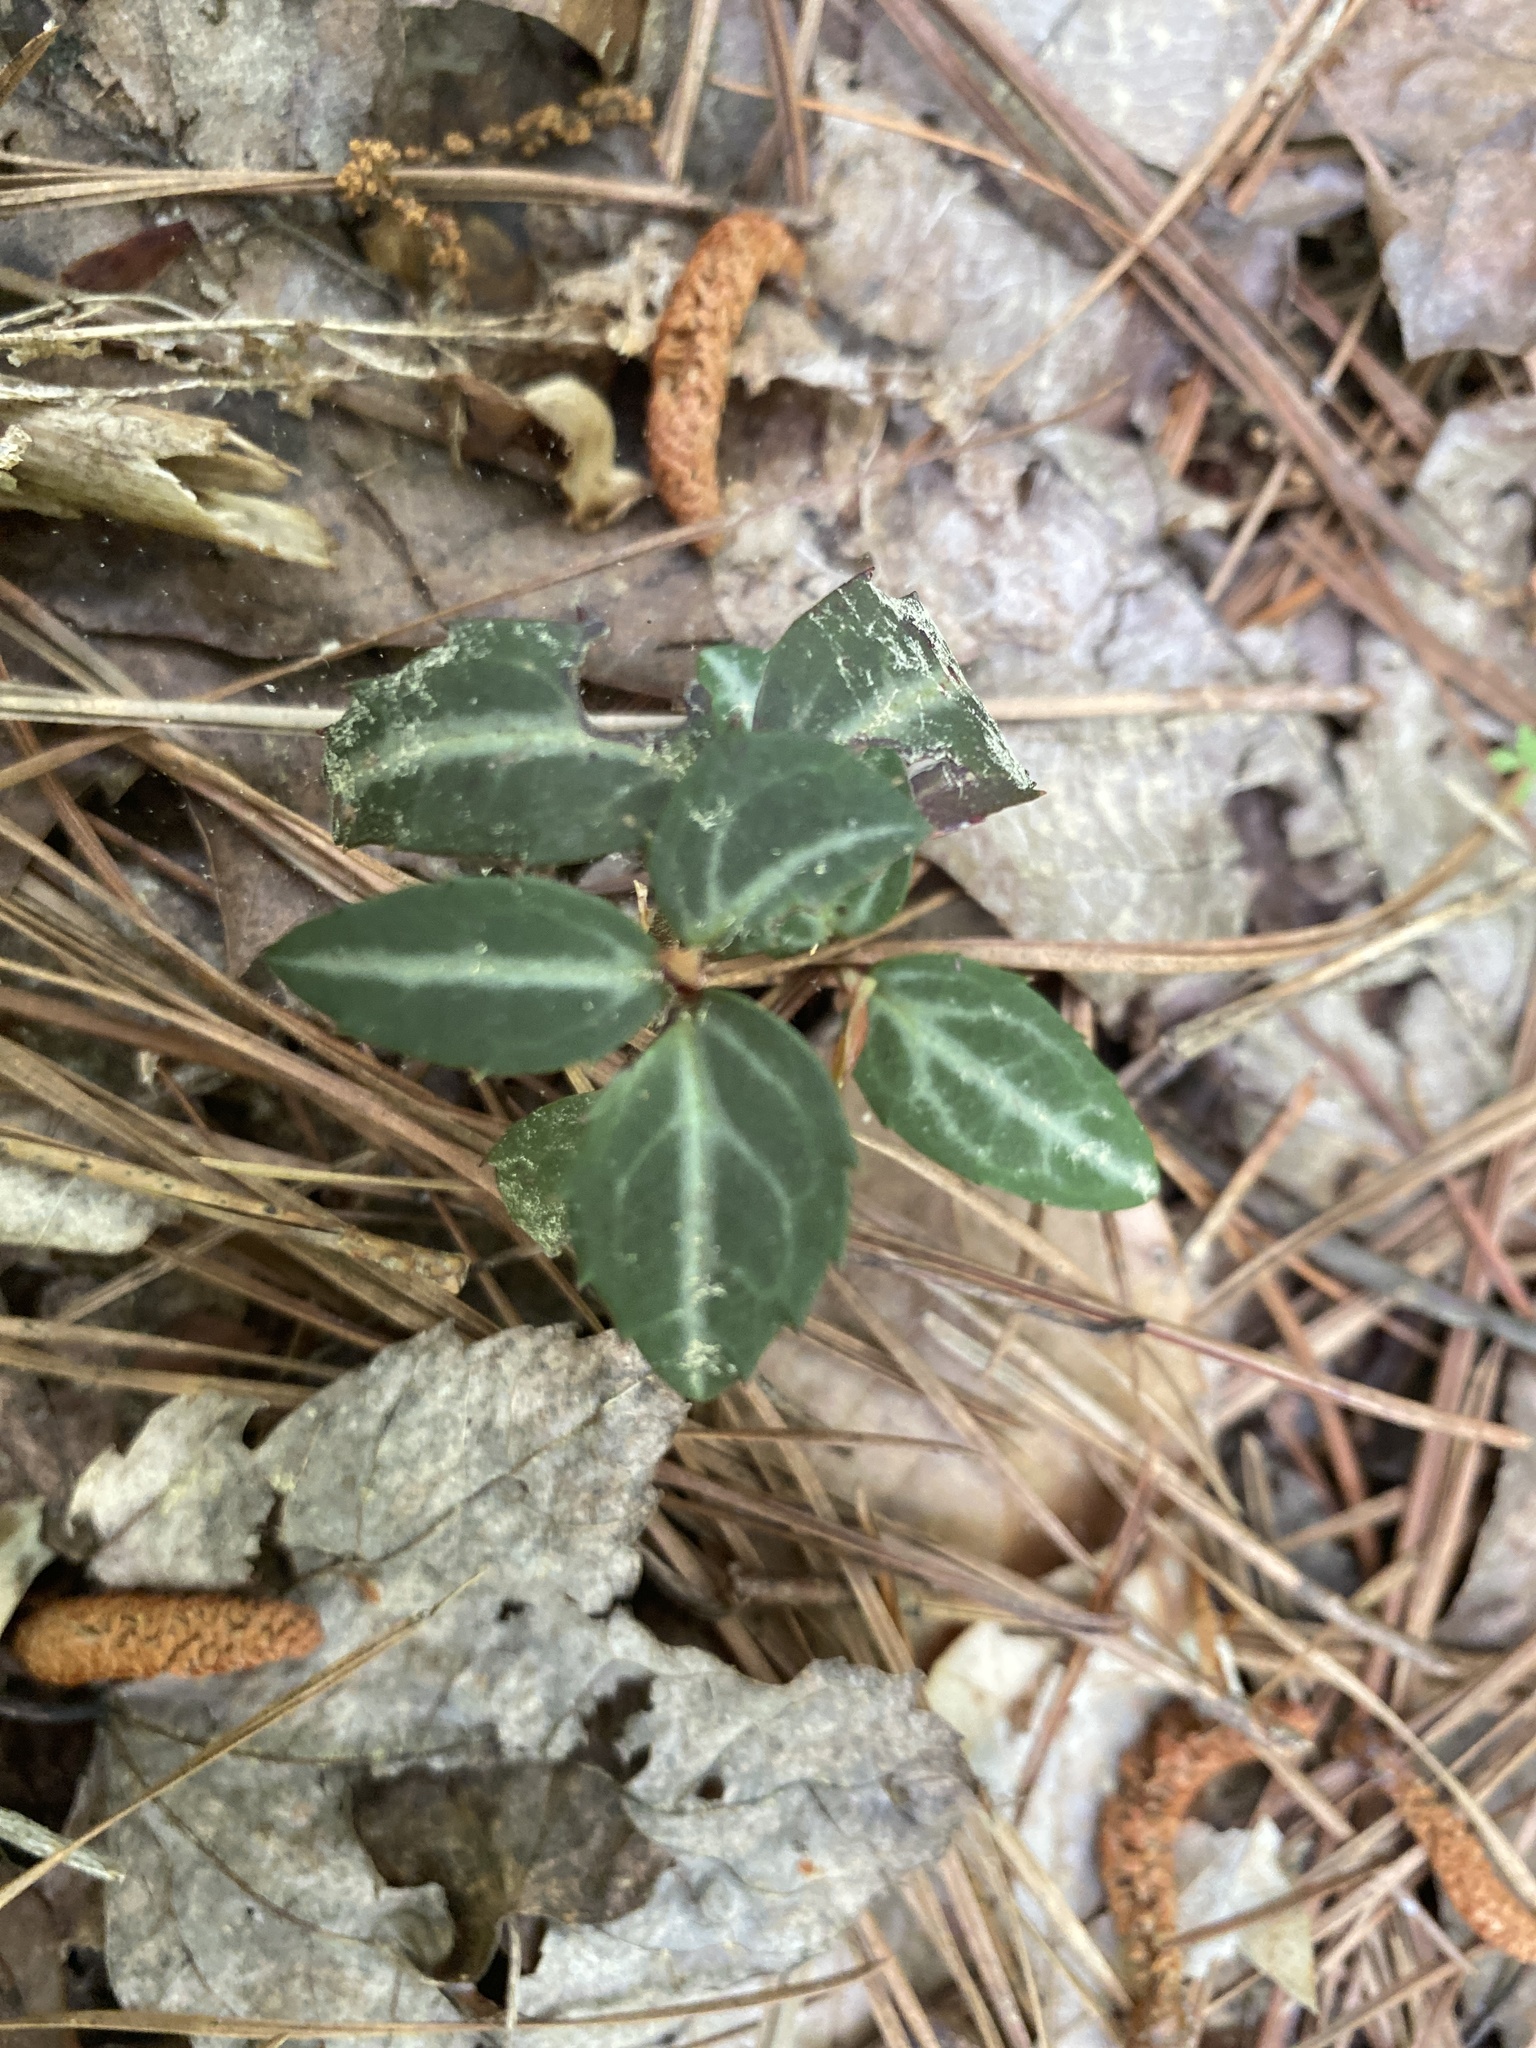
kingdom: Plantae
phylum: Tracheophyta
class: Magnoliopsida
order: Ericales
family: Ericaceae
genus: Chimaphila
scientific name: Chimaphila maculata
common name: Spotted pipsissewa
